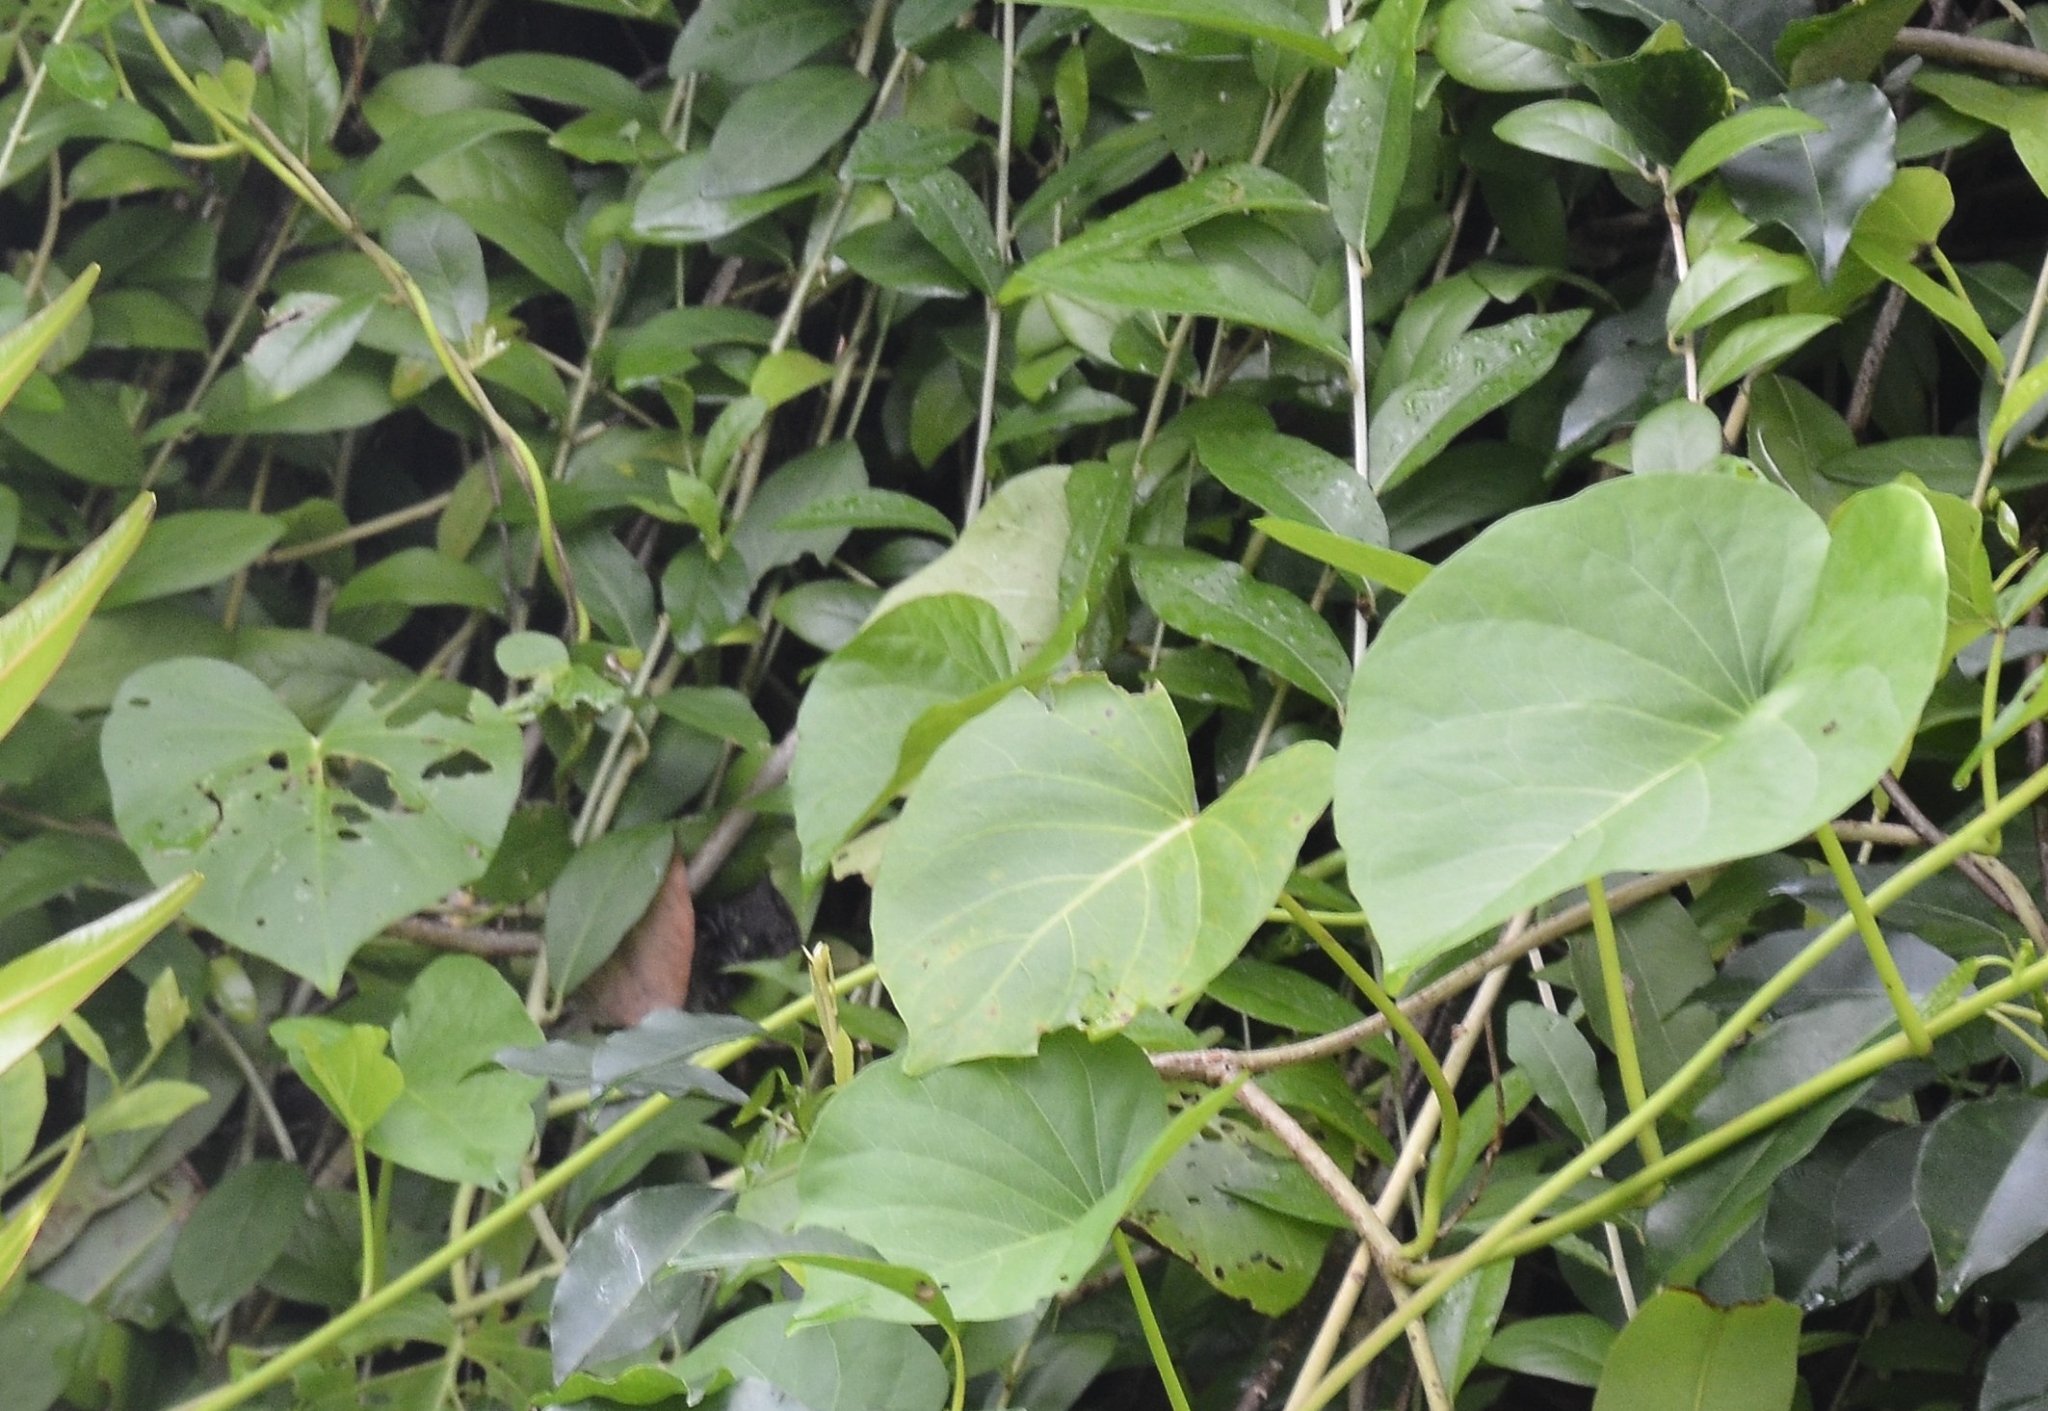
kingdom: Plantae
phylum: Tracheophyta
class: Magnoliopsida
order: Solanales
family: Convolvulaceae
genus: Ipomoea
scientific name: Ipomoea violacea
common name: Beach moonflower
